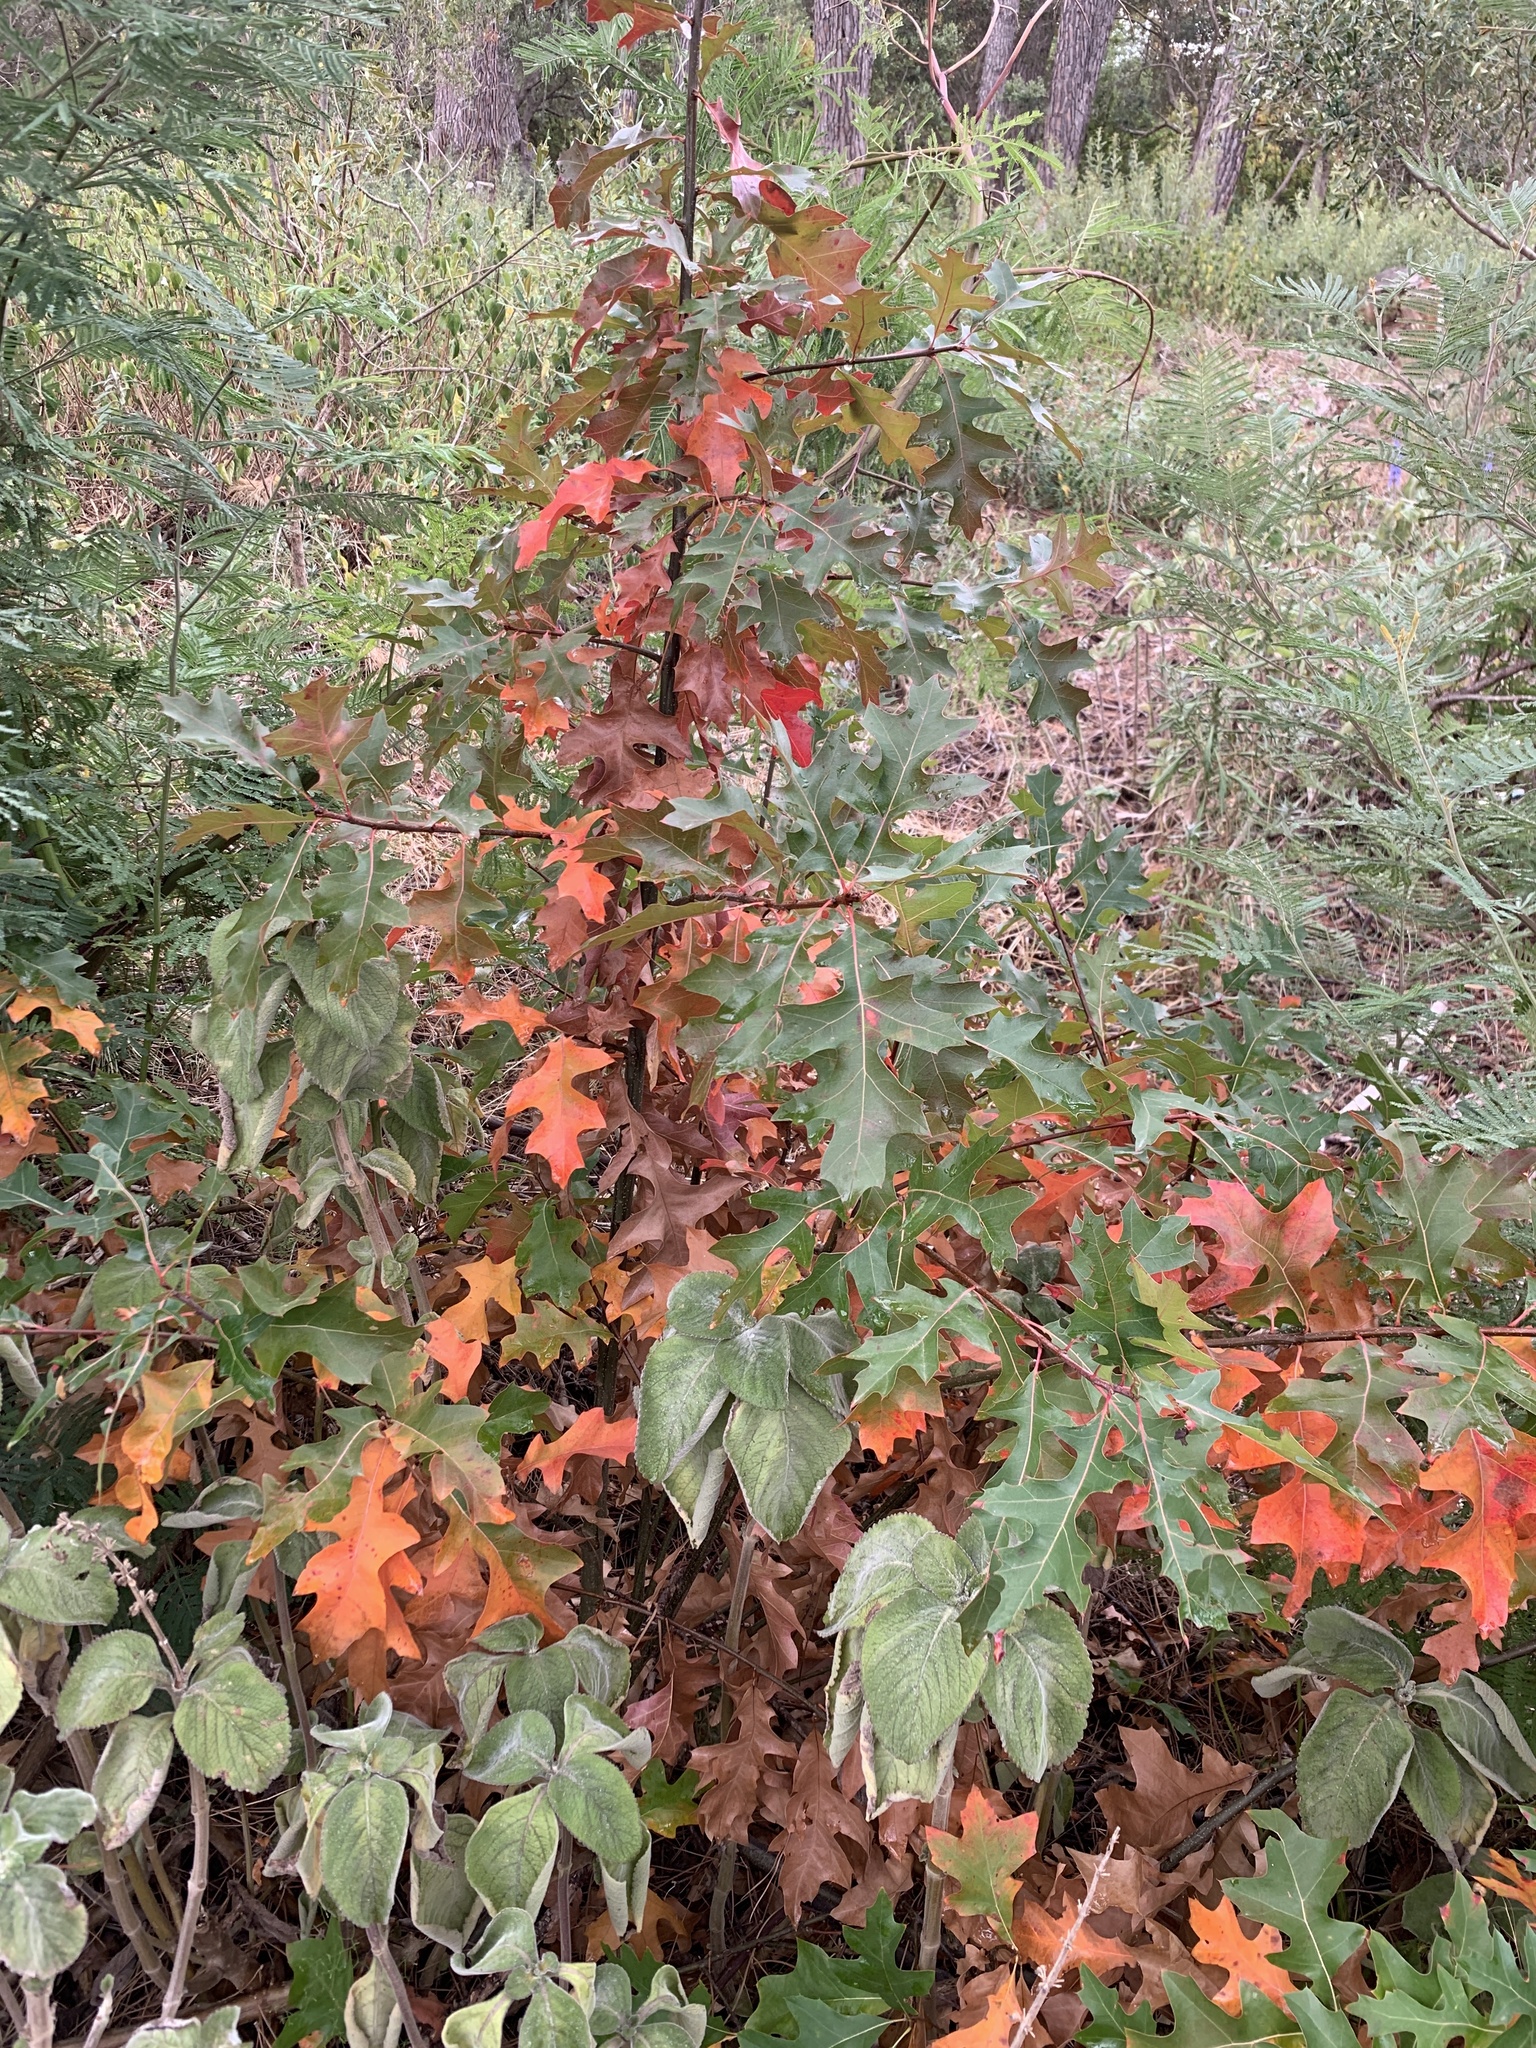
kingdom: Plantae
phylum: Tracheophyta
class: Magnoliopsida
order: Fagales
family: Fagaceae
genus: Quercus
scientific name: Quercus palustris
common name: Pin oak
